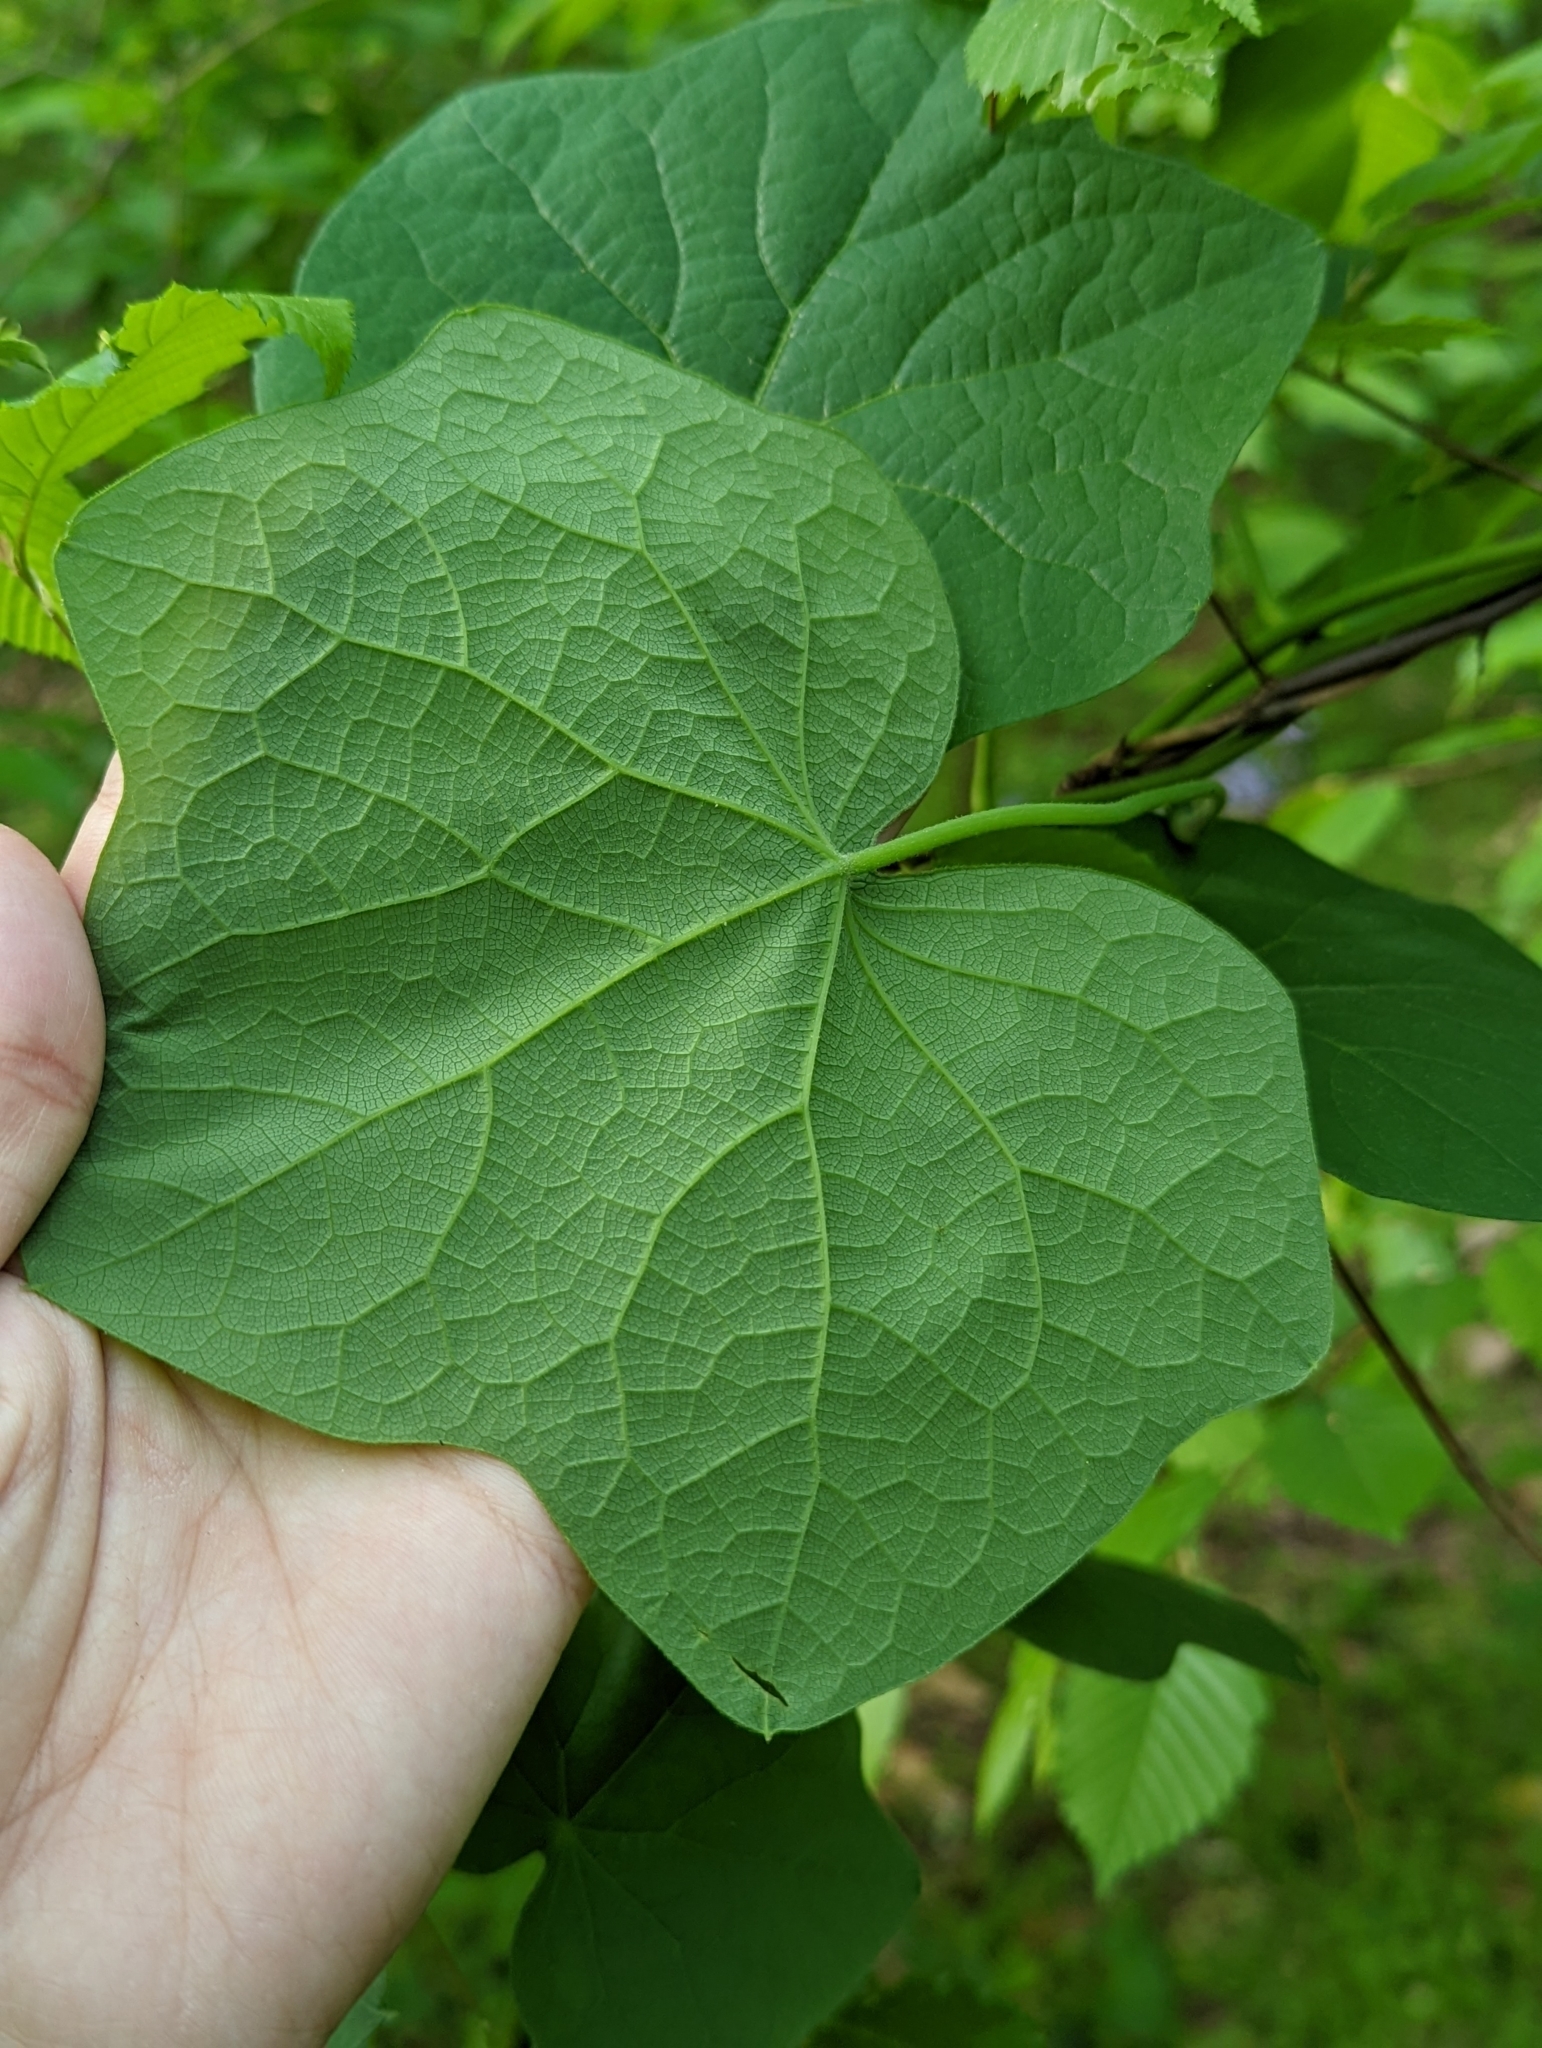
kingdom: Plantae
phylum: Tracheophyta
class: Magnoliopsida
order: Ranunculales
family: Menispermaceae
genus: Menispermum
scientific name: Menispermum canadense
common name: Moonseed
